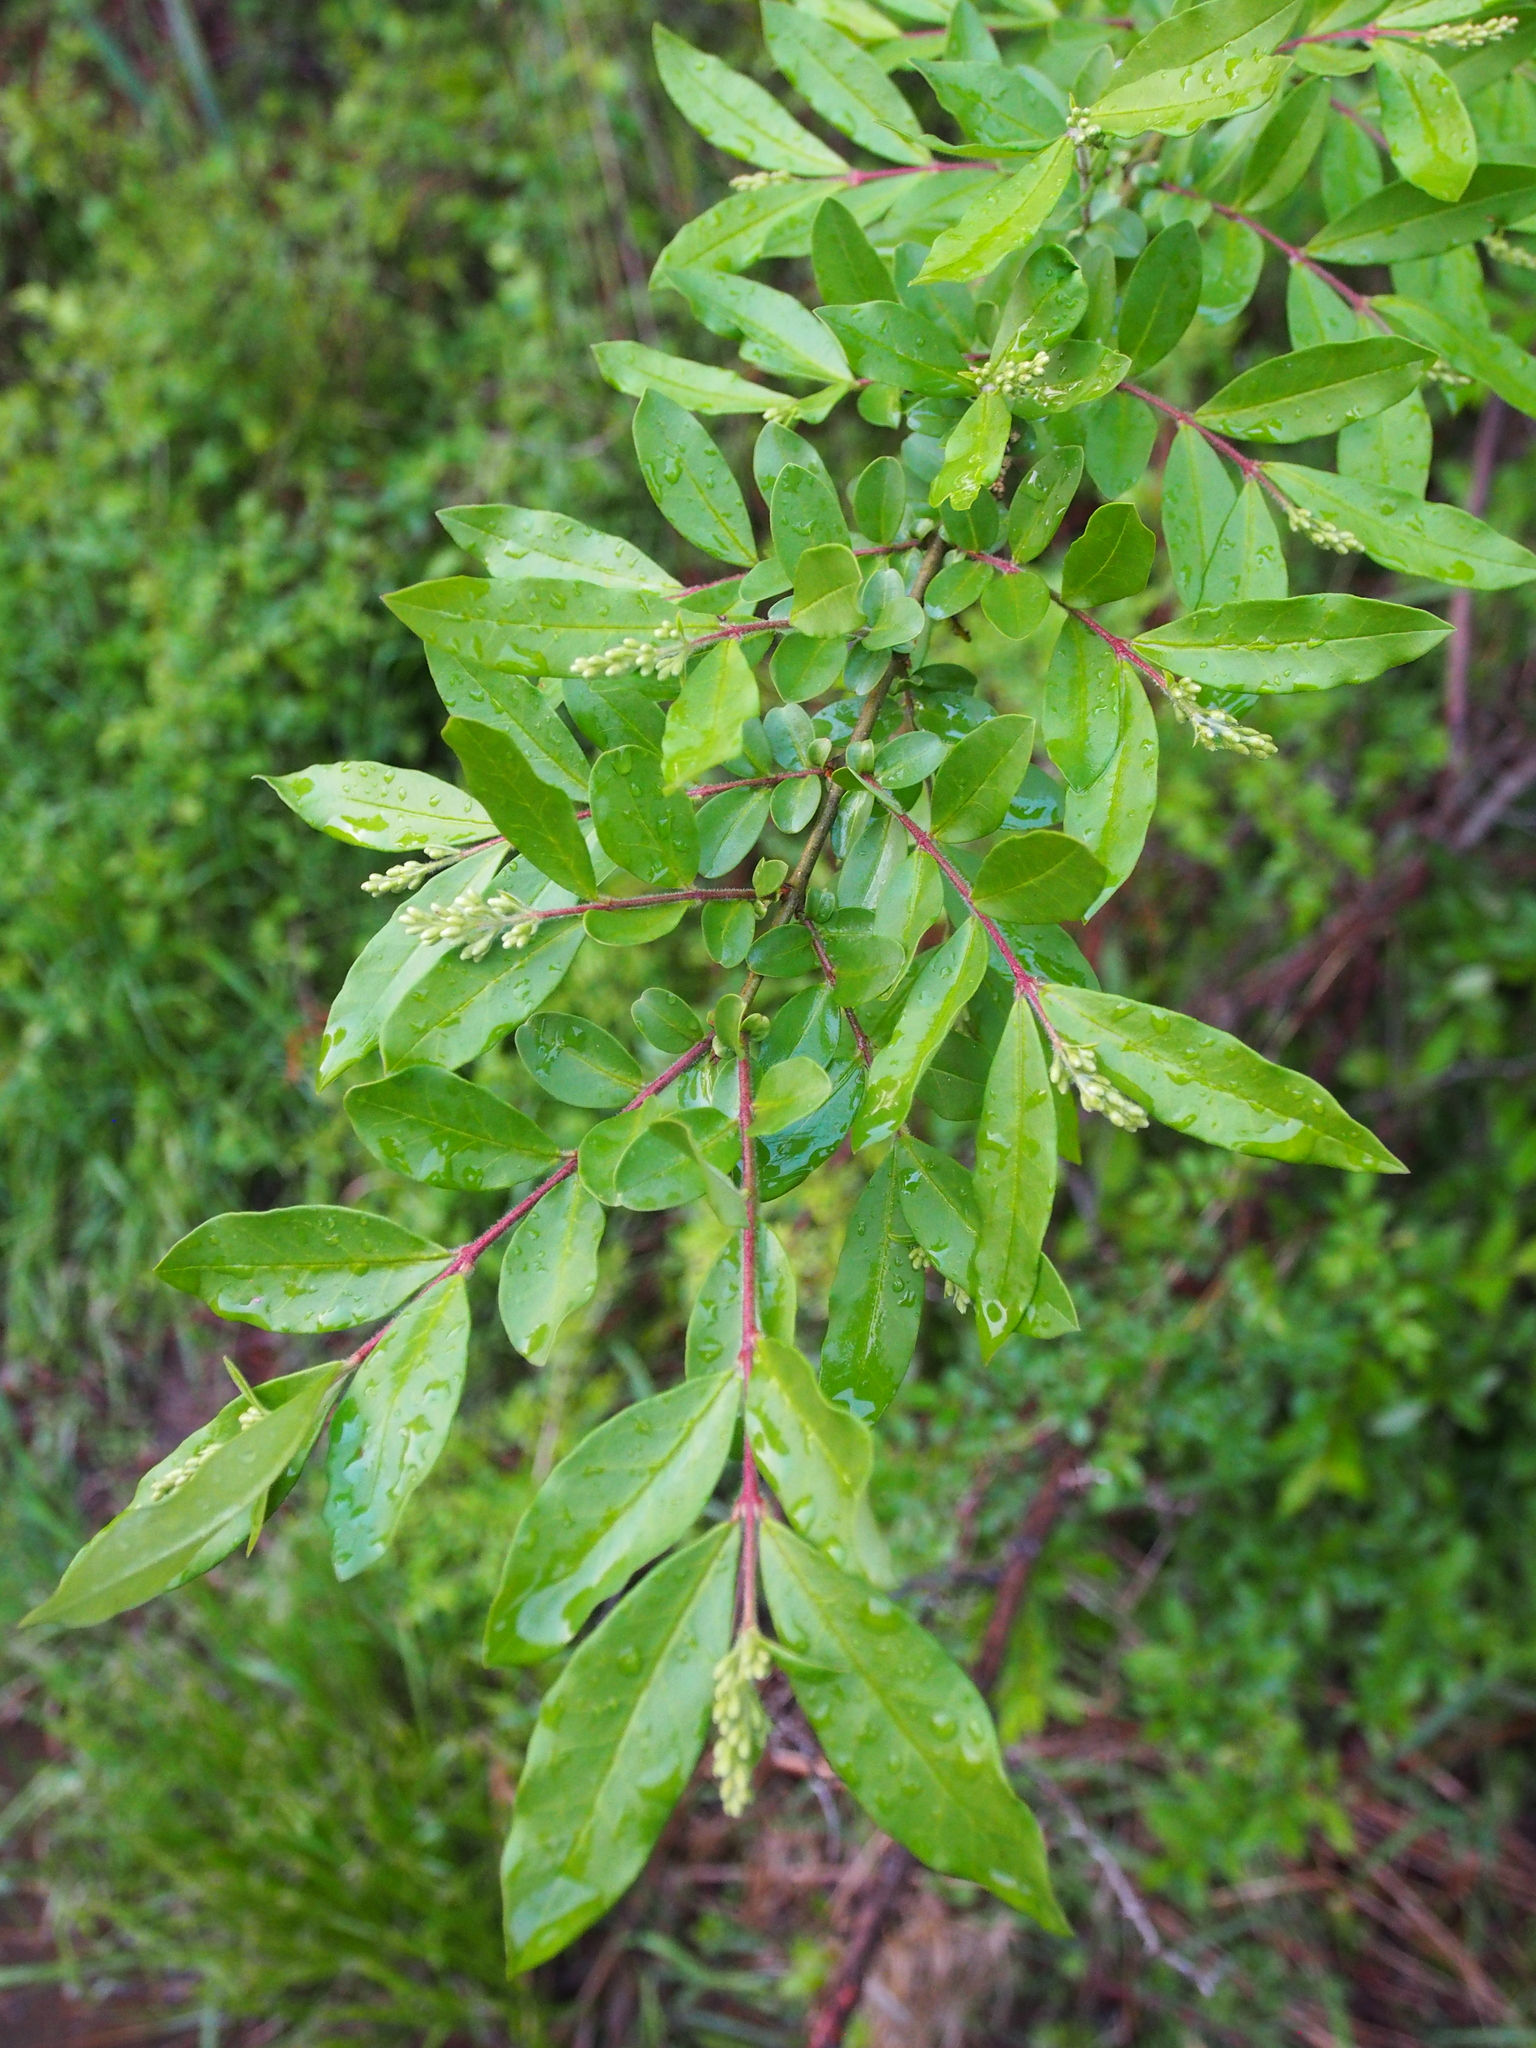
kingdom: Plantae
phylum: Tracheophyta
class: Magnoliopsida
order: Lamiales
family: Oleaceae
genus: Ligustrum
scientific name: Ligustrum obtusifolium
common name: Border privet
